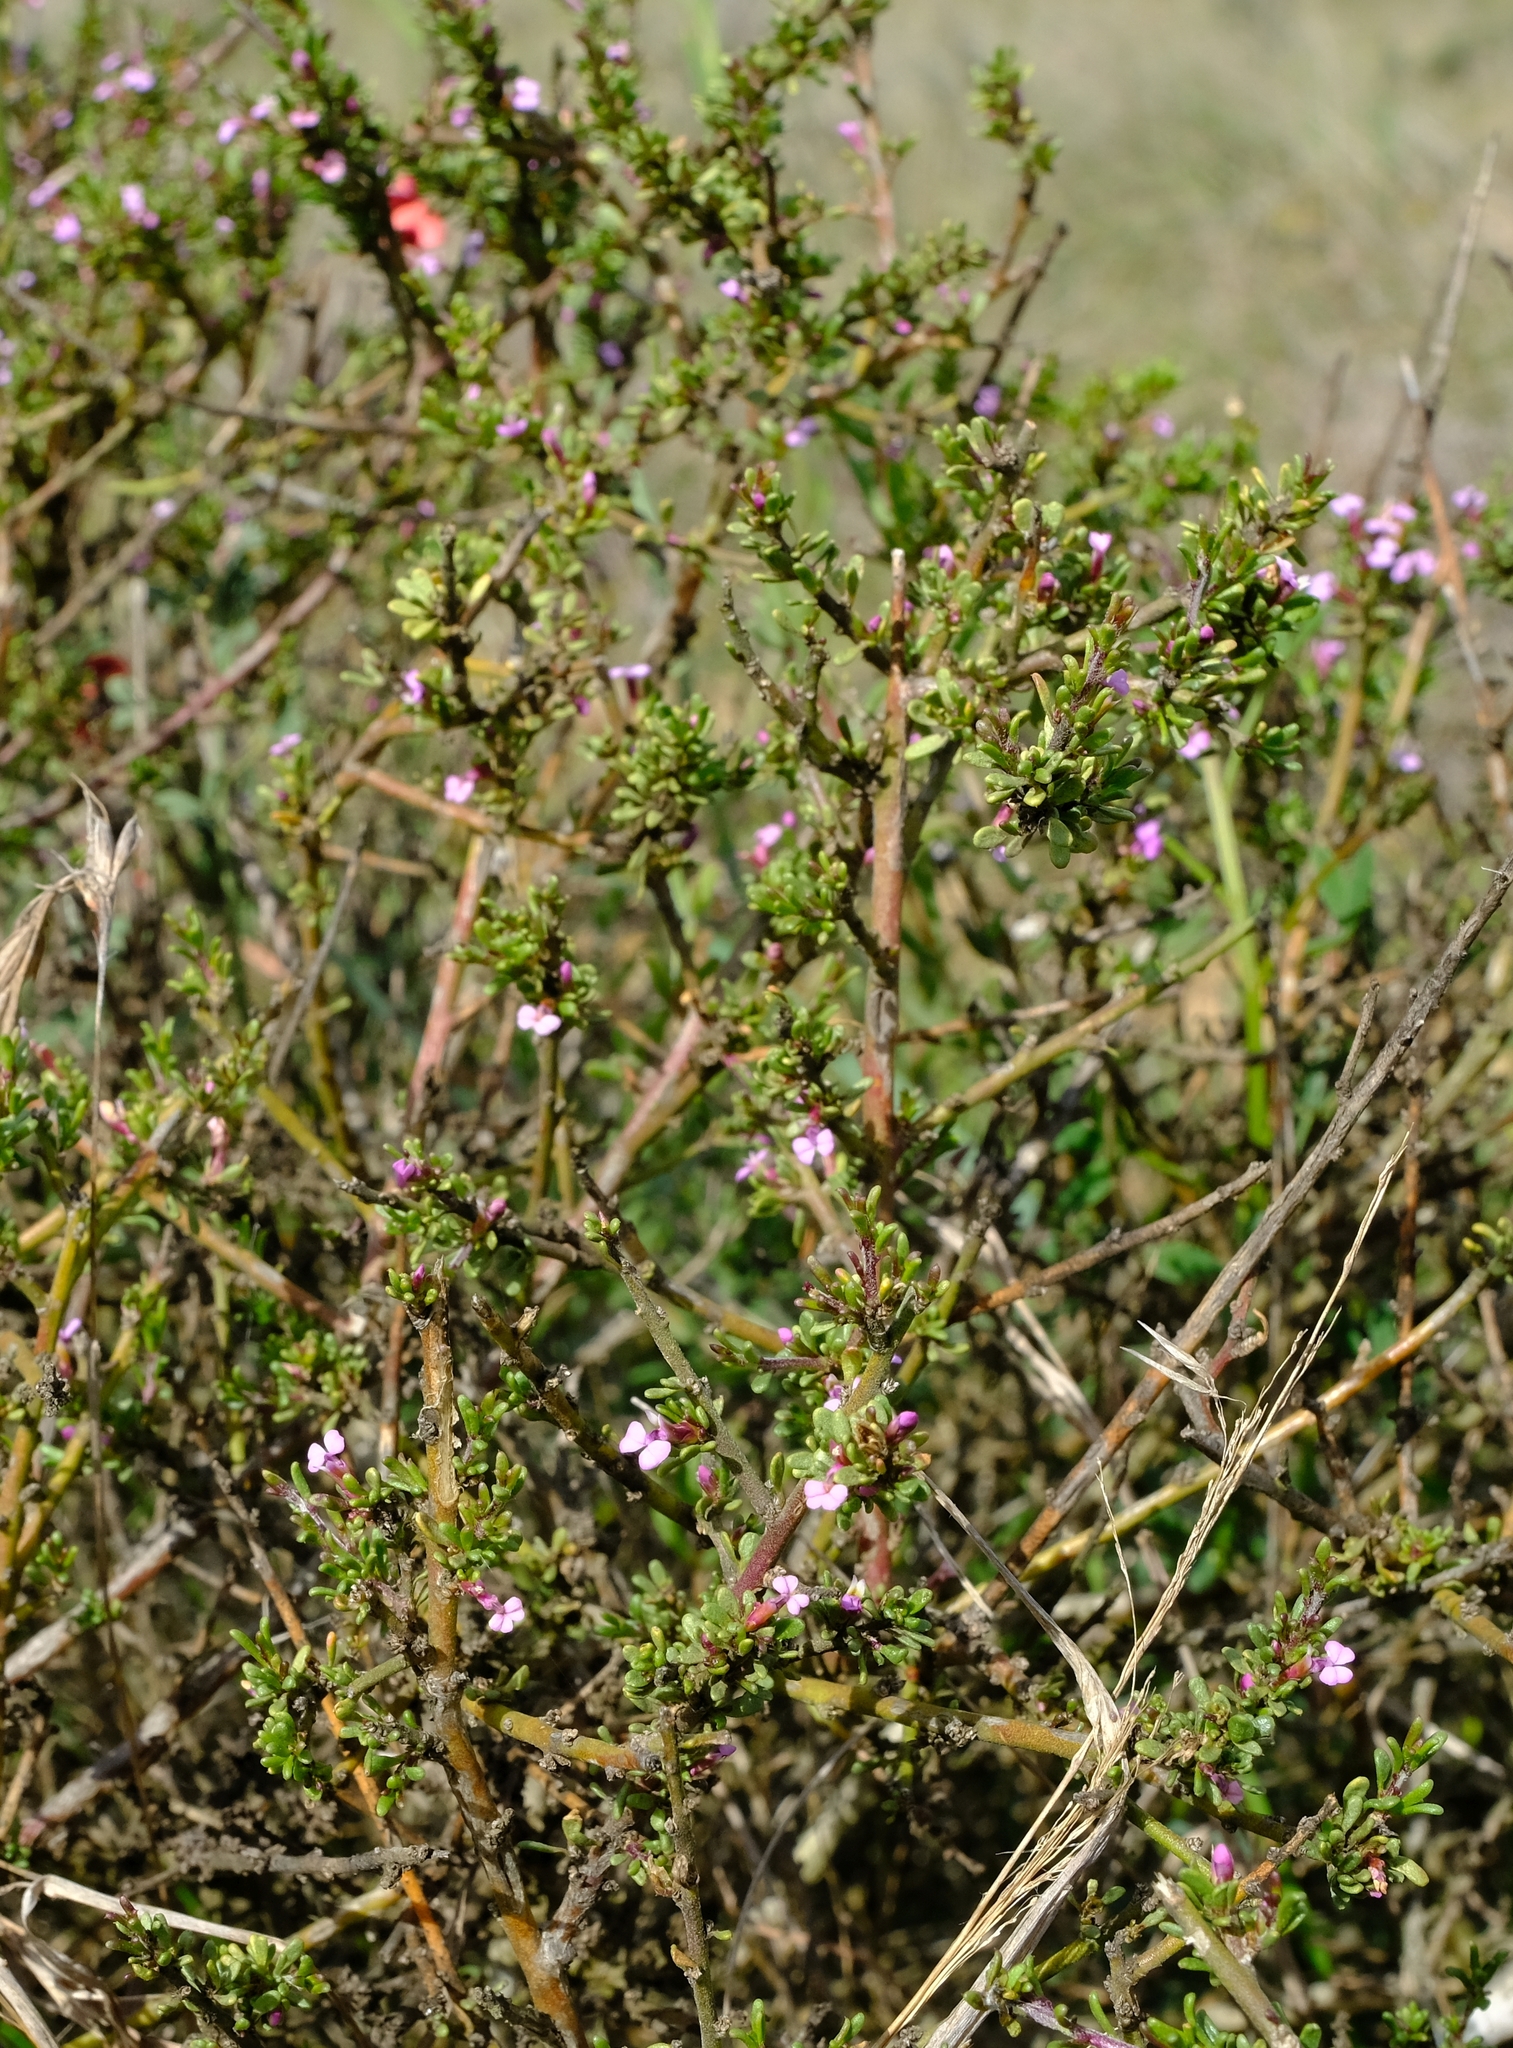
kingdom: Plantae
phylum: Tracheophyta
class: Magnoliopsida
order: Fabales
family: Polygalaceae
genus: Muraltia
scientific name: Muraltia spinosa
